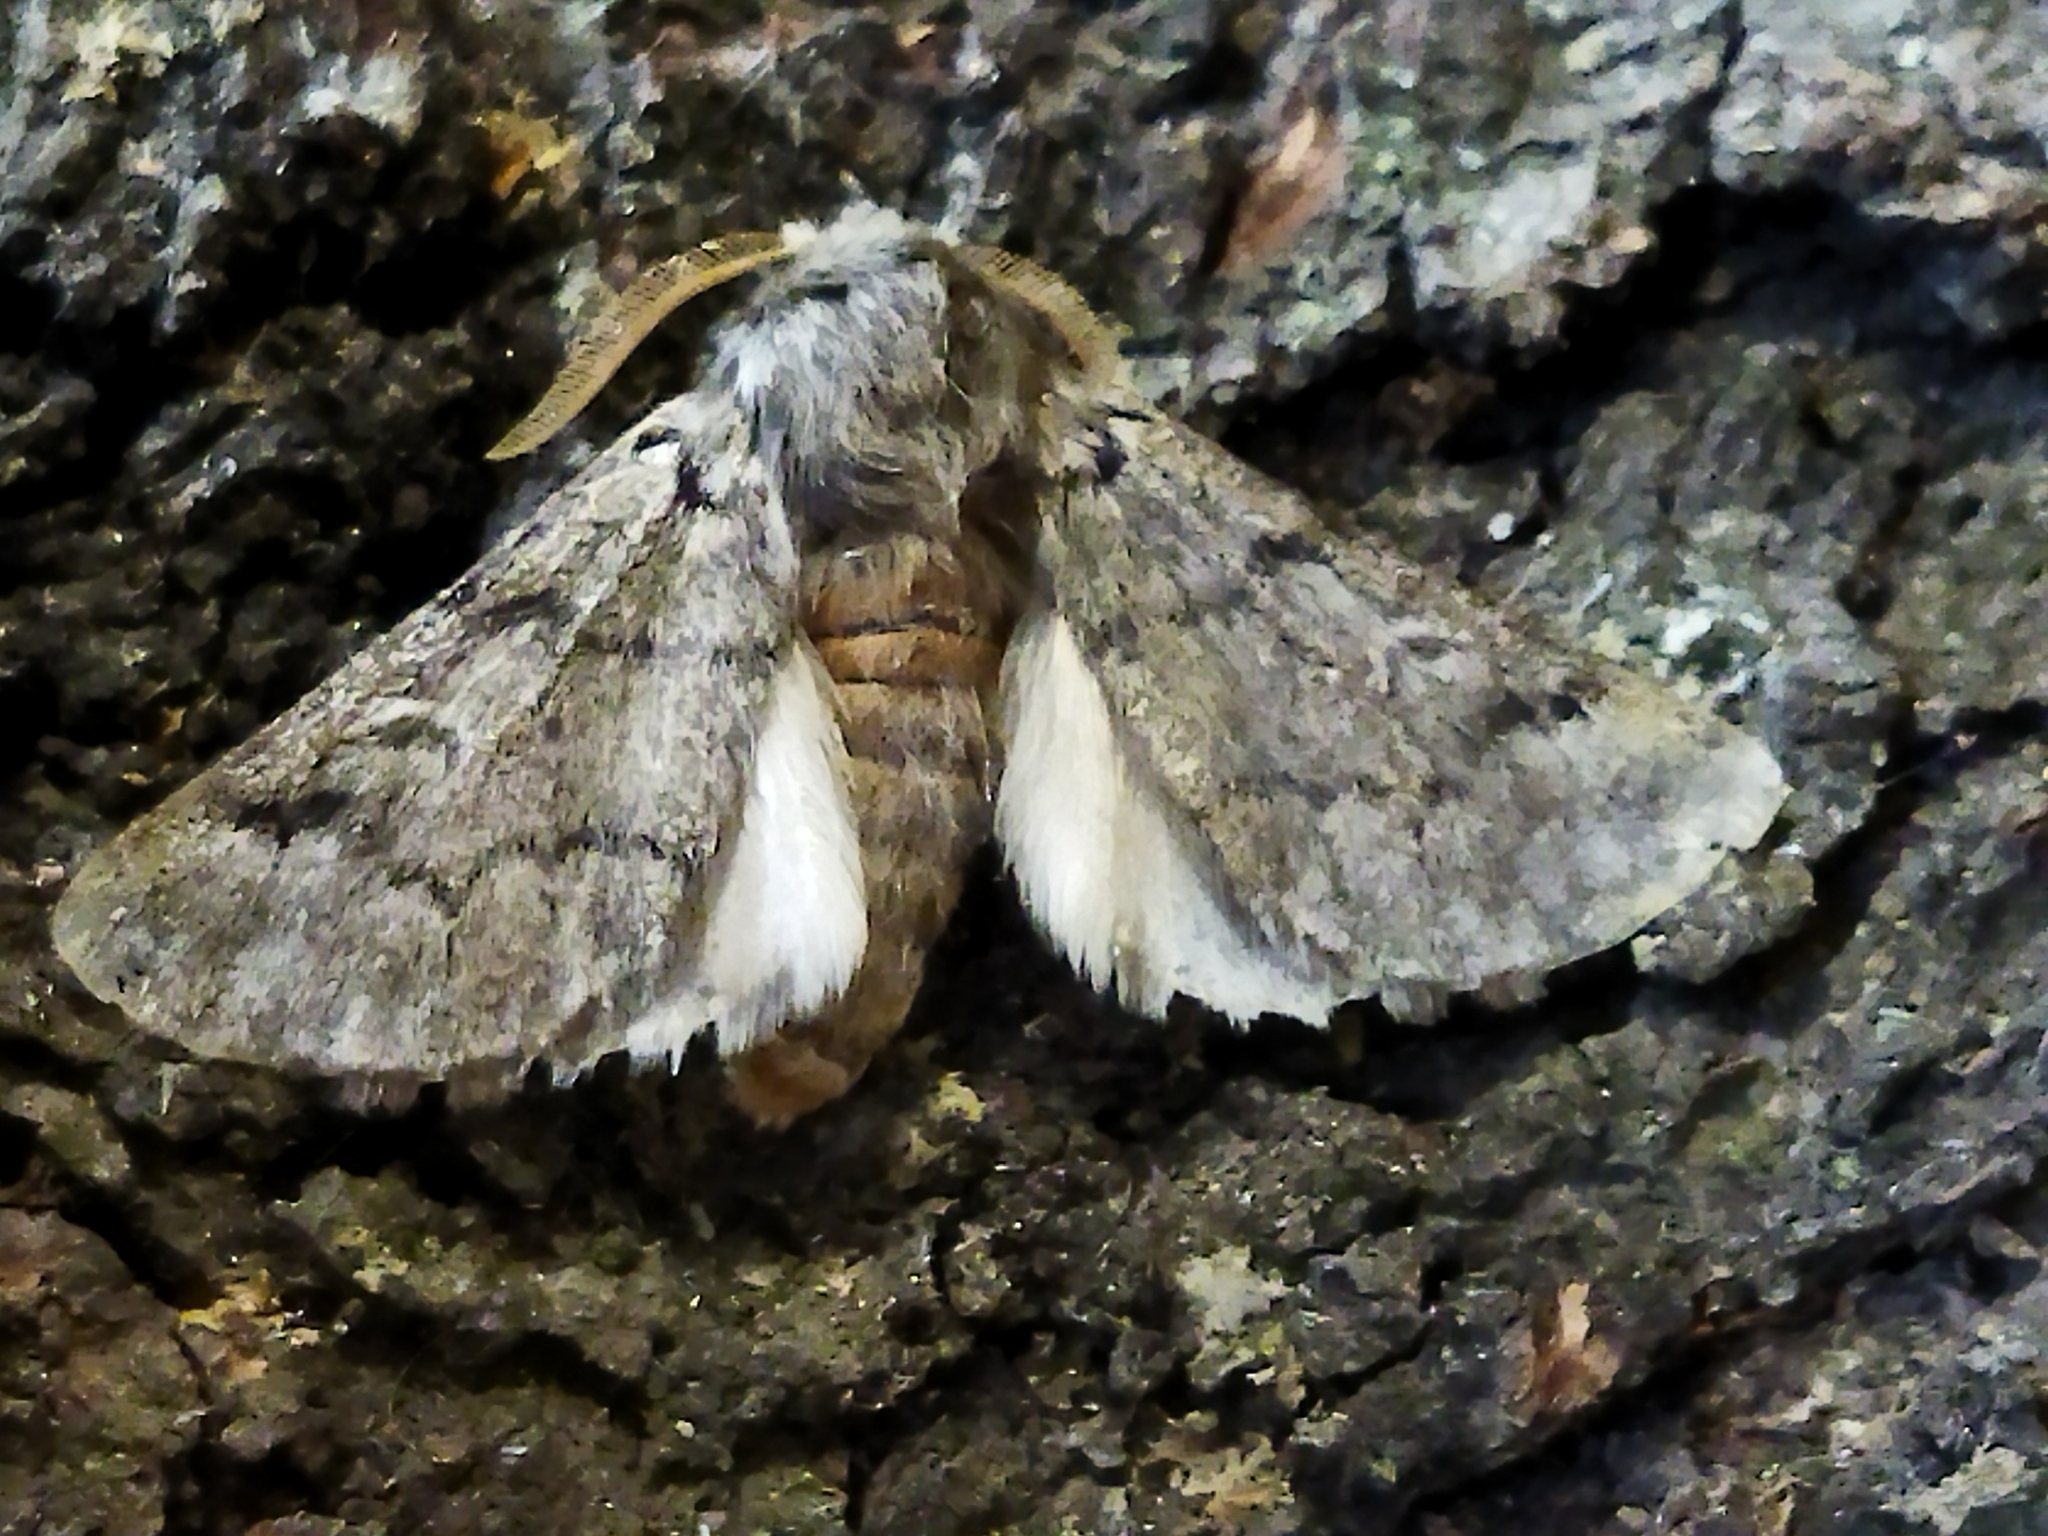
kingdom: Animalia
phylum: Arthropoda
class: Insecta
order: Lepidoptera
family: Notodontidae
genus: Thaumetopoea
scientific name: Thaumetopoea pityocampa
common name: Pine processionary
